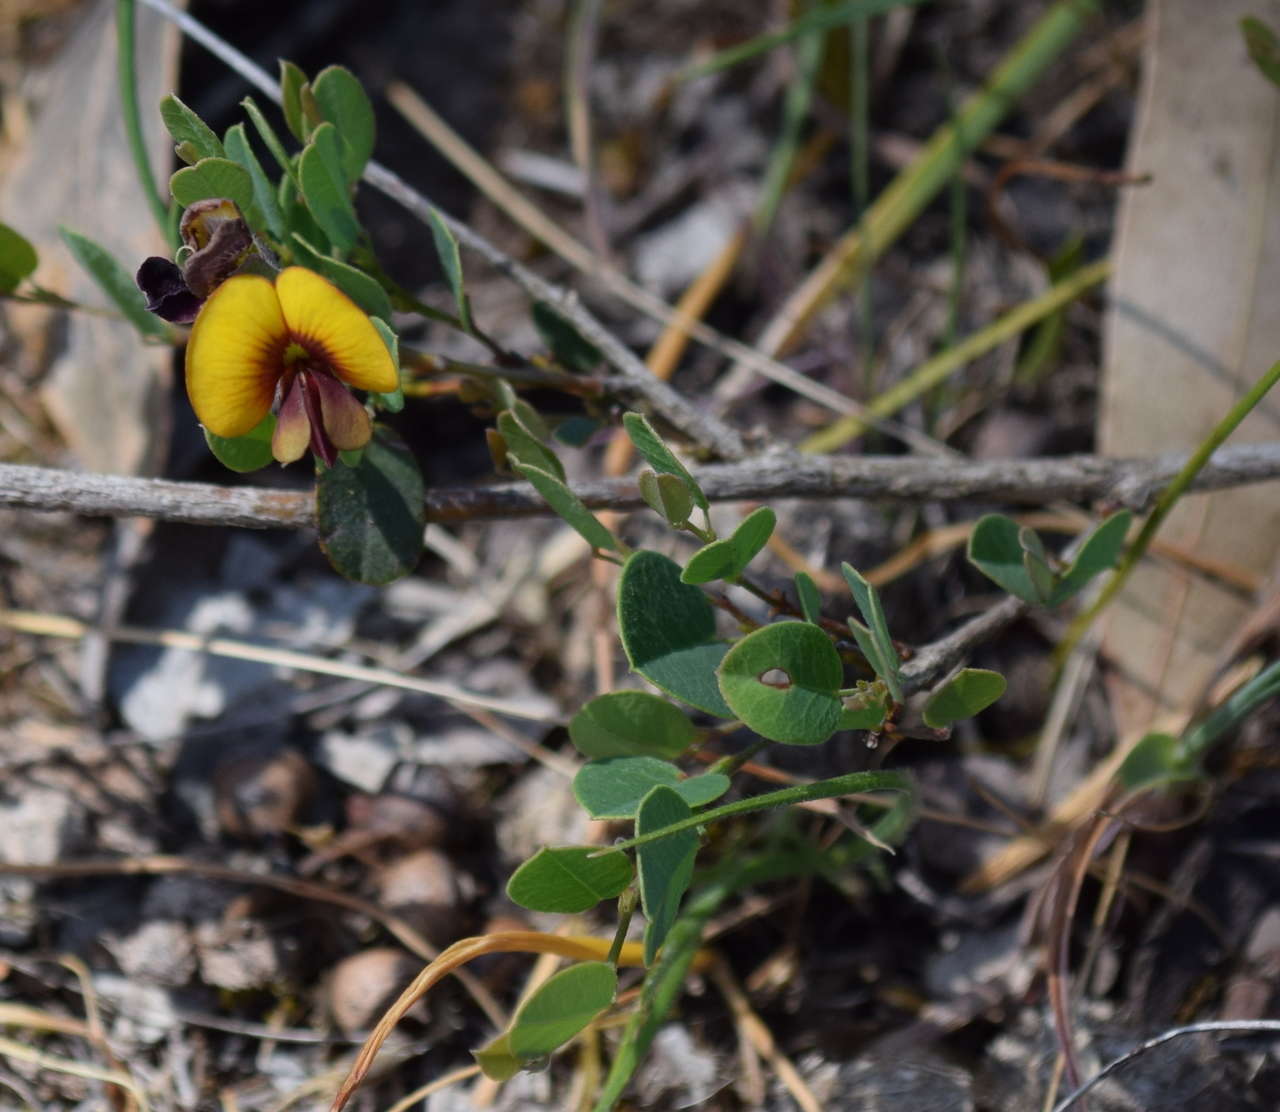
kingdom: Plantae
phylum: Tracheophyta
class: Magnoliopsida
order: Fabales
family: Fabaceae
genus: Bossiaea
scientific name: Bossiaea prostrata
